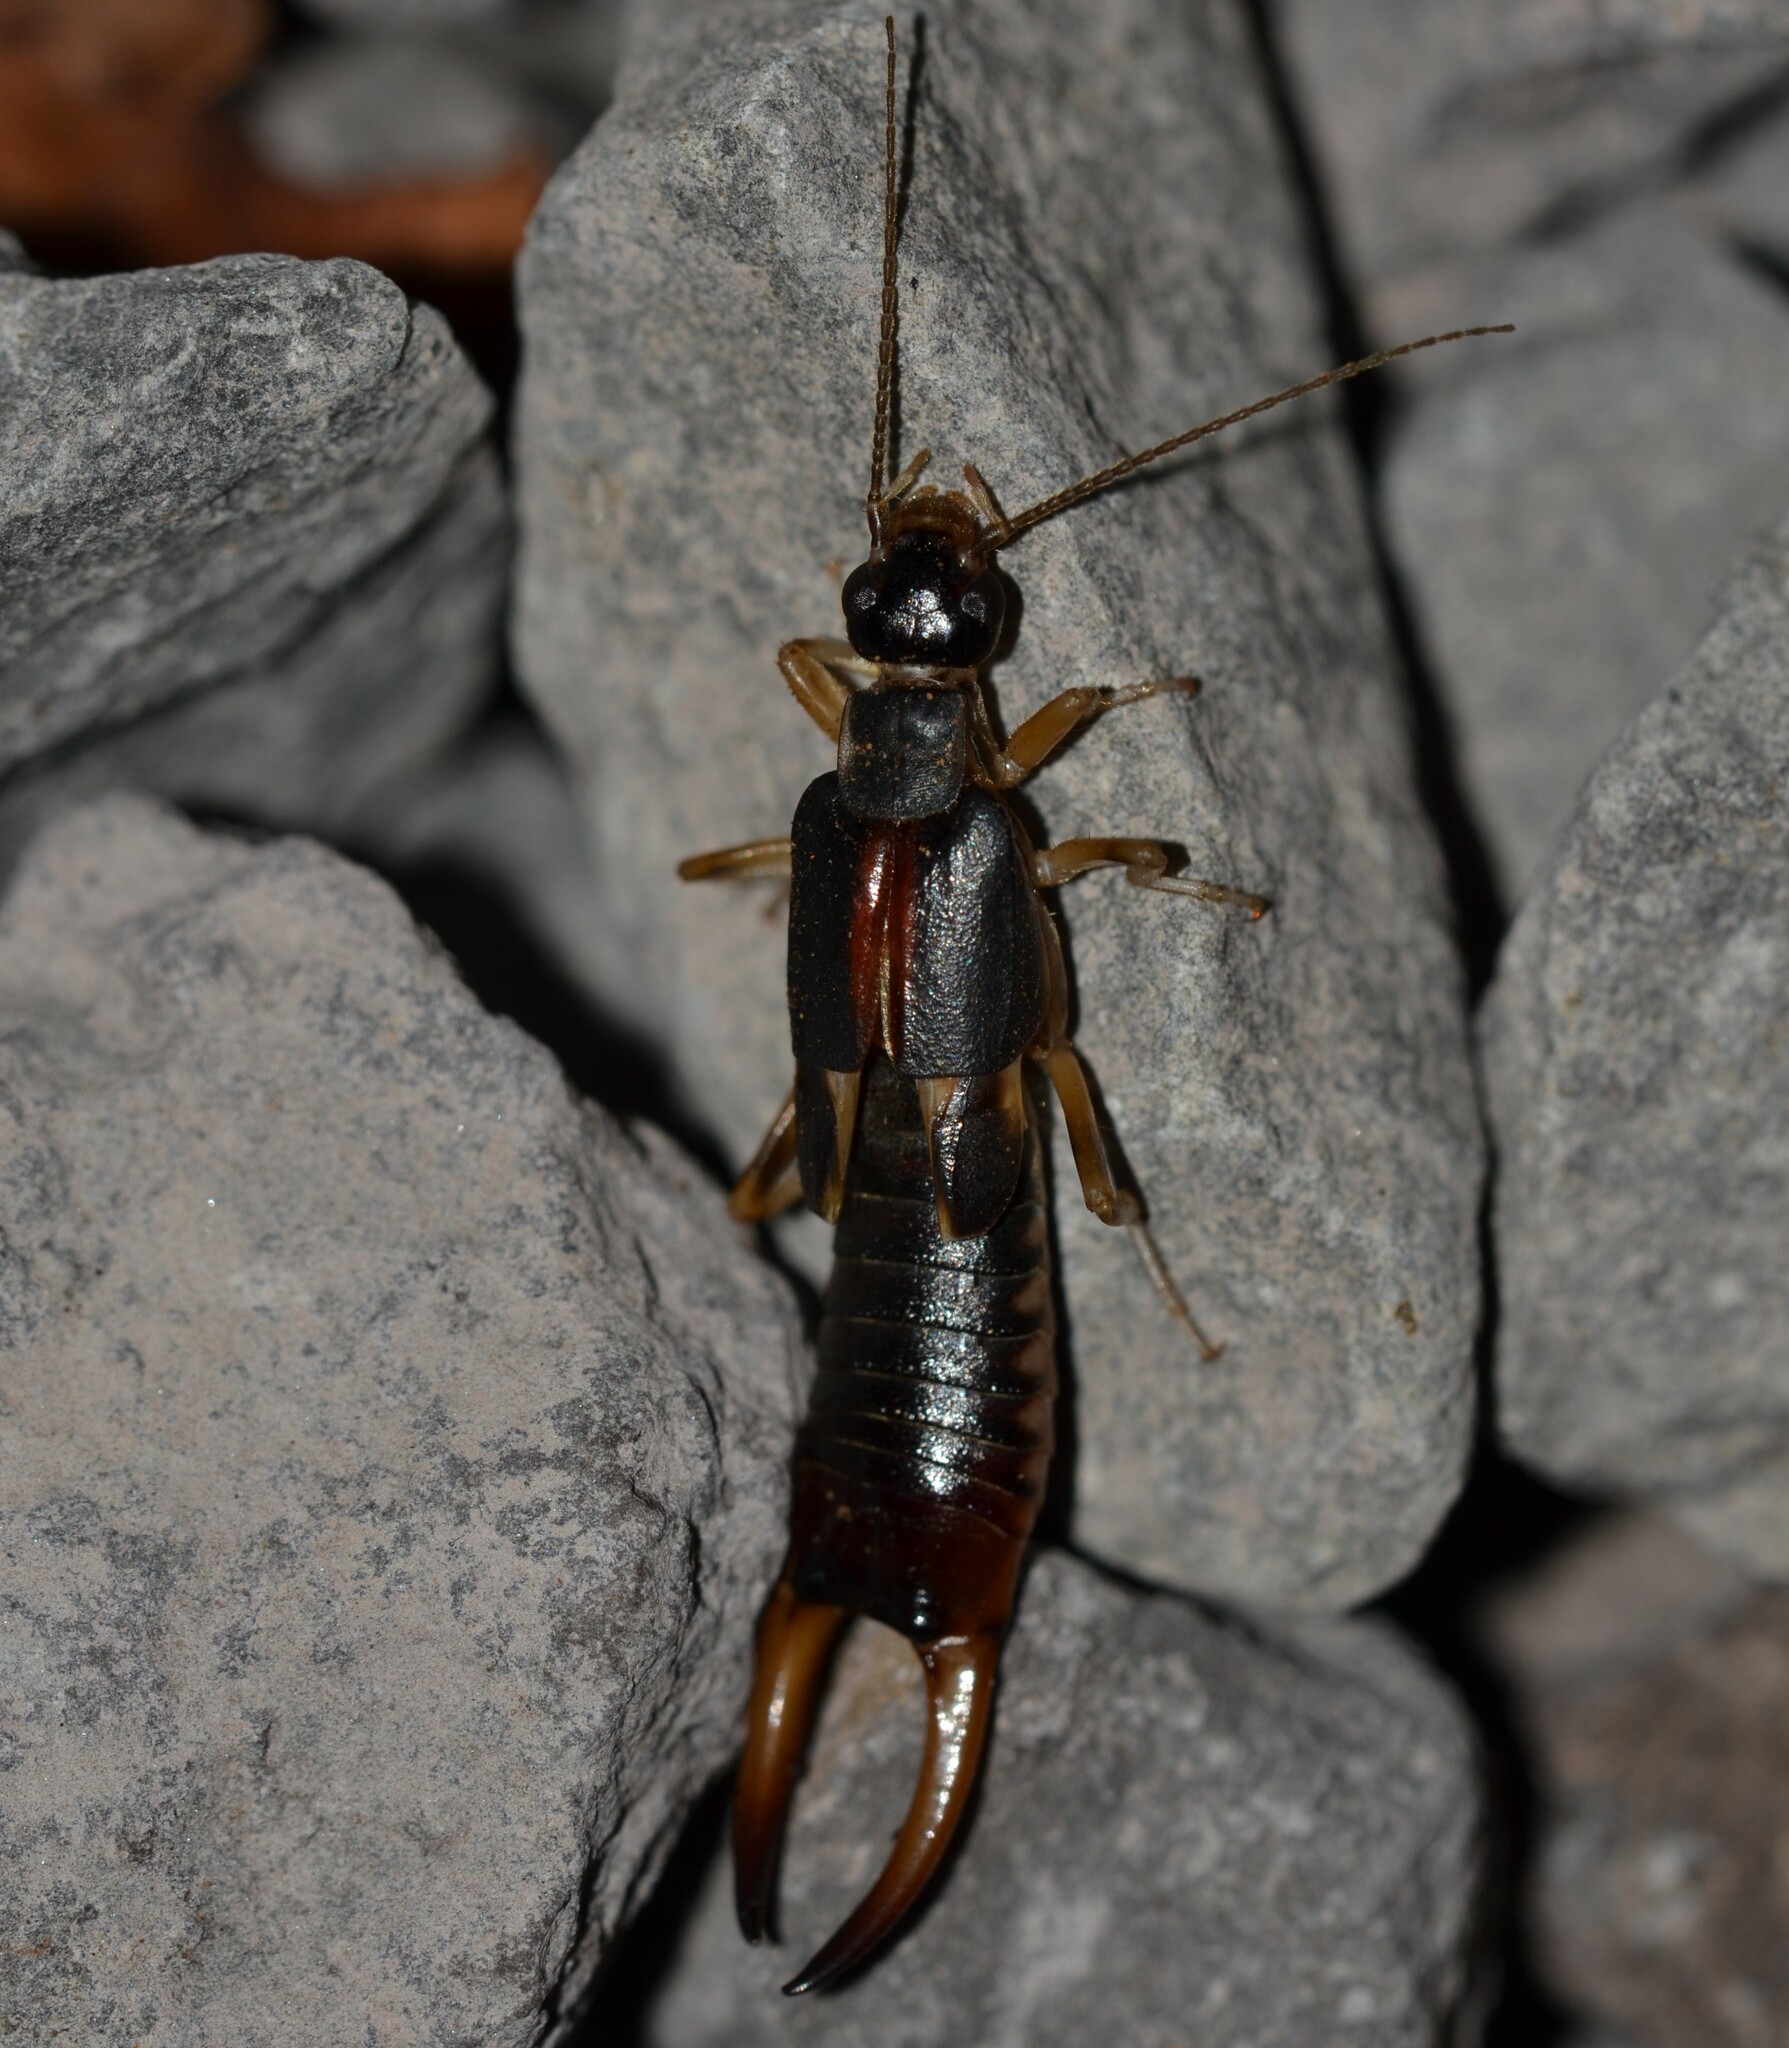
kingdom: Animalia
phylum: Arthropoda
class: Insecta
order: Dermaptera
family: Labiduridae
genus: Labidura
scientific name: Labidura riparia
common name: Striped earwig
